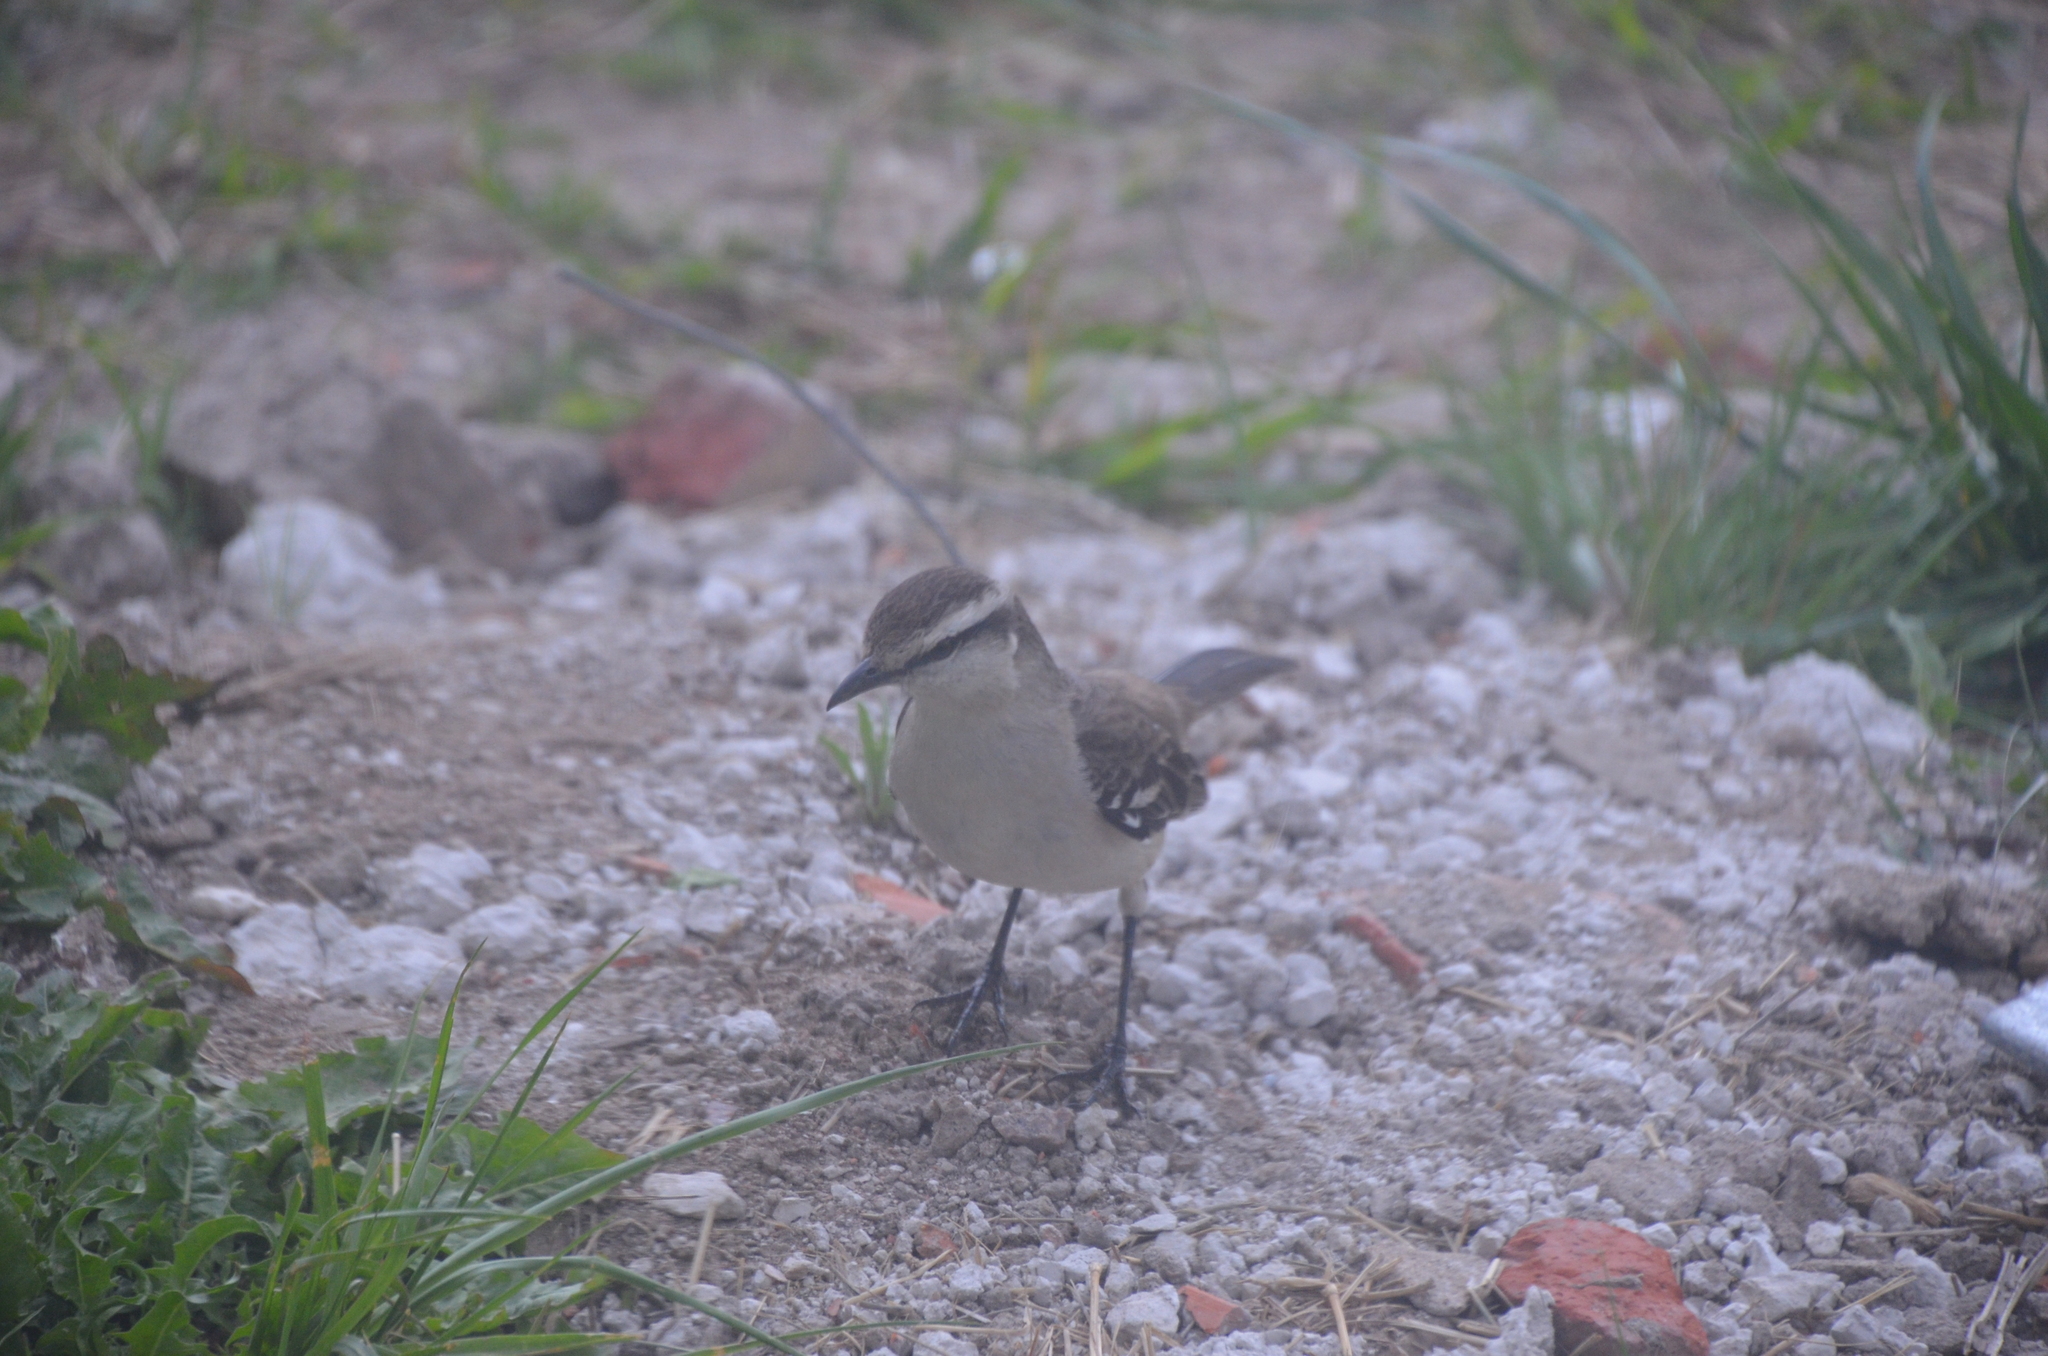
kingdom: Animalia
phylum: Chordata
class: Aves
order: Passeriformes
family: Mimidae
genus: Mimus
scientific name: Mimus saturninus
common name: Chalk-browed mockingbird
